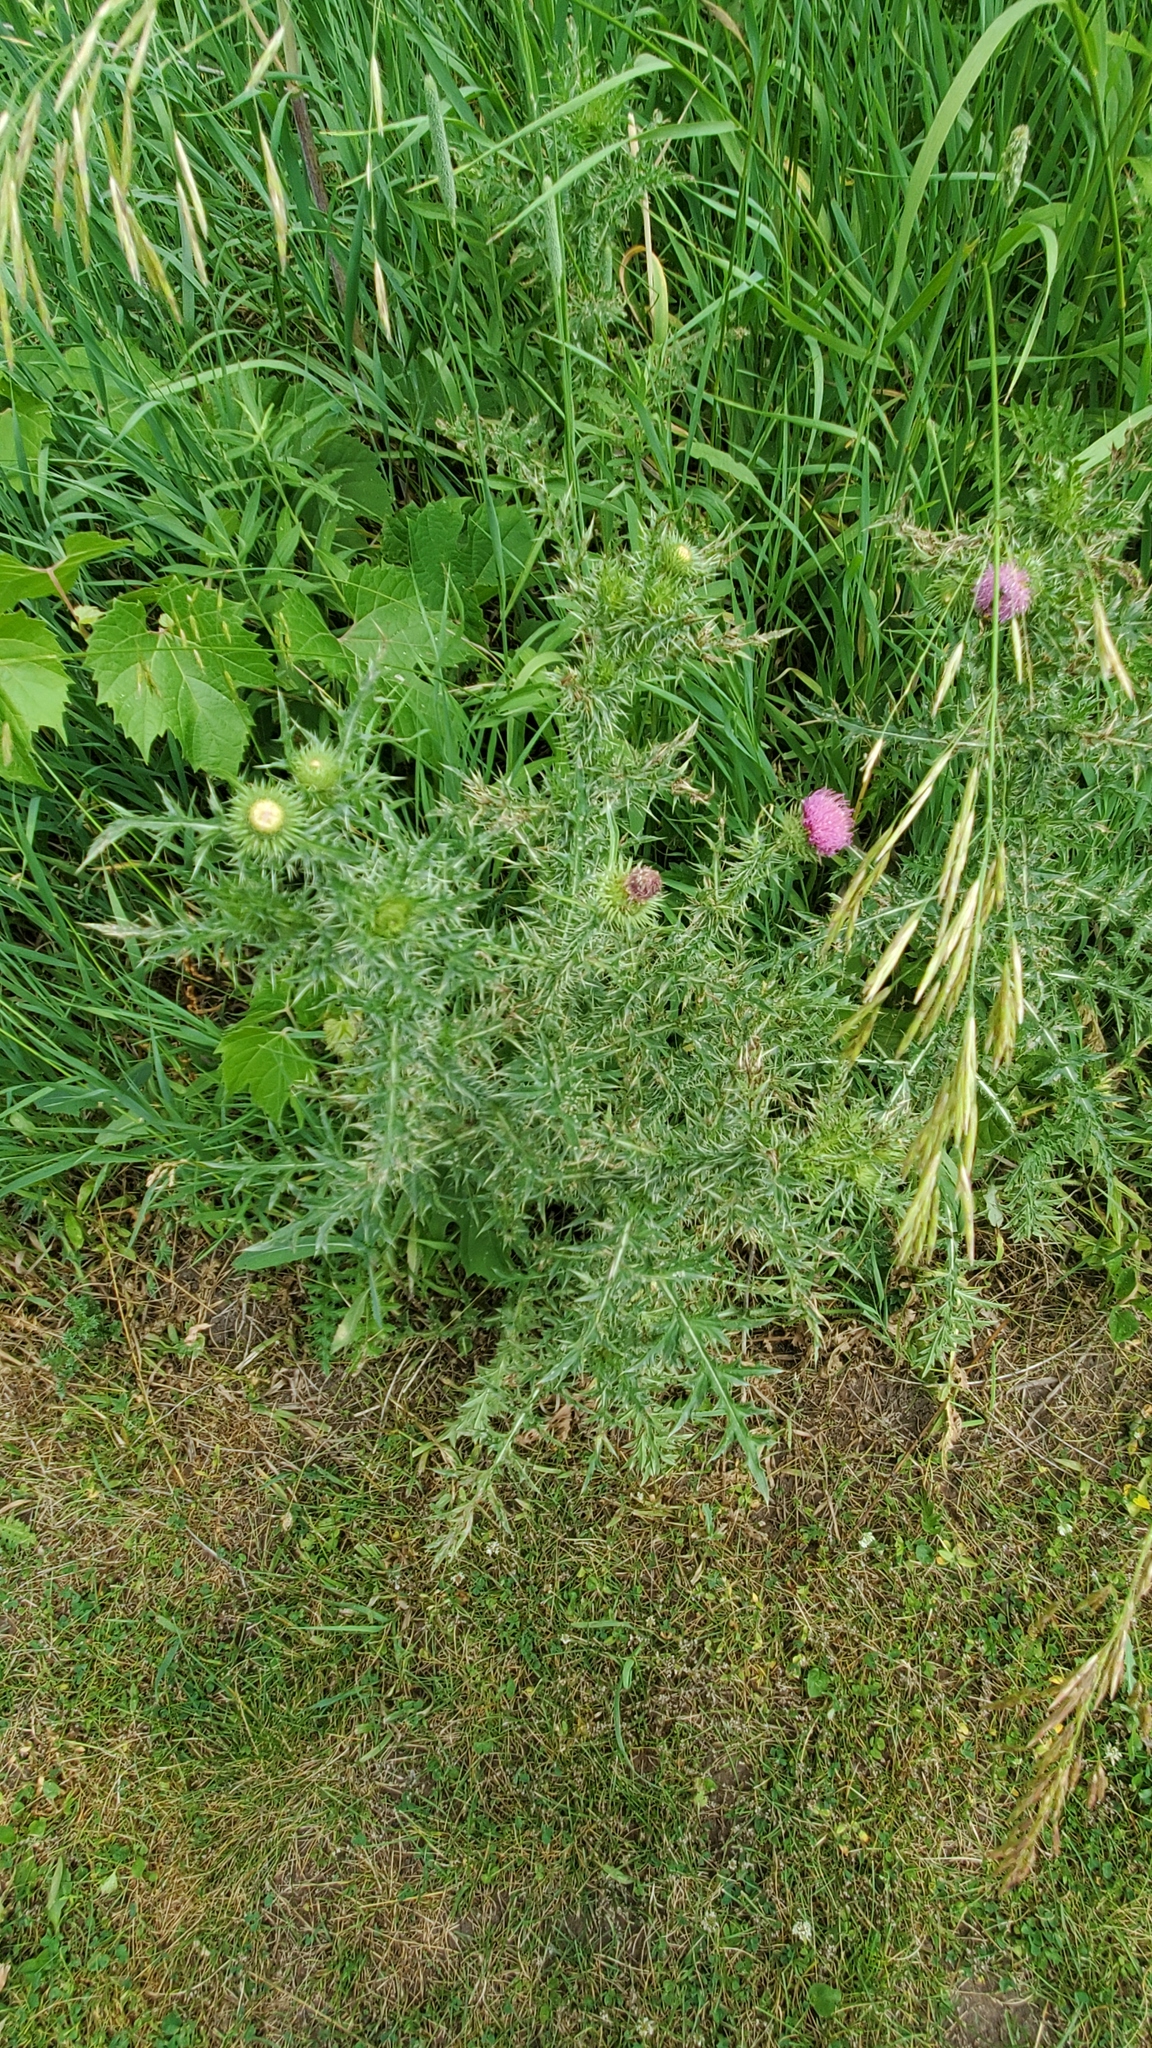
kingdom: Plantae
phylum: Tracheophyta
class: Magnoliopsida
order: Asterales
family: Asteraceae
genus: Carduus
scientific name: Carduus acanthoides
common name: Plumeless thistle
